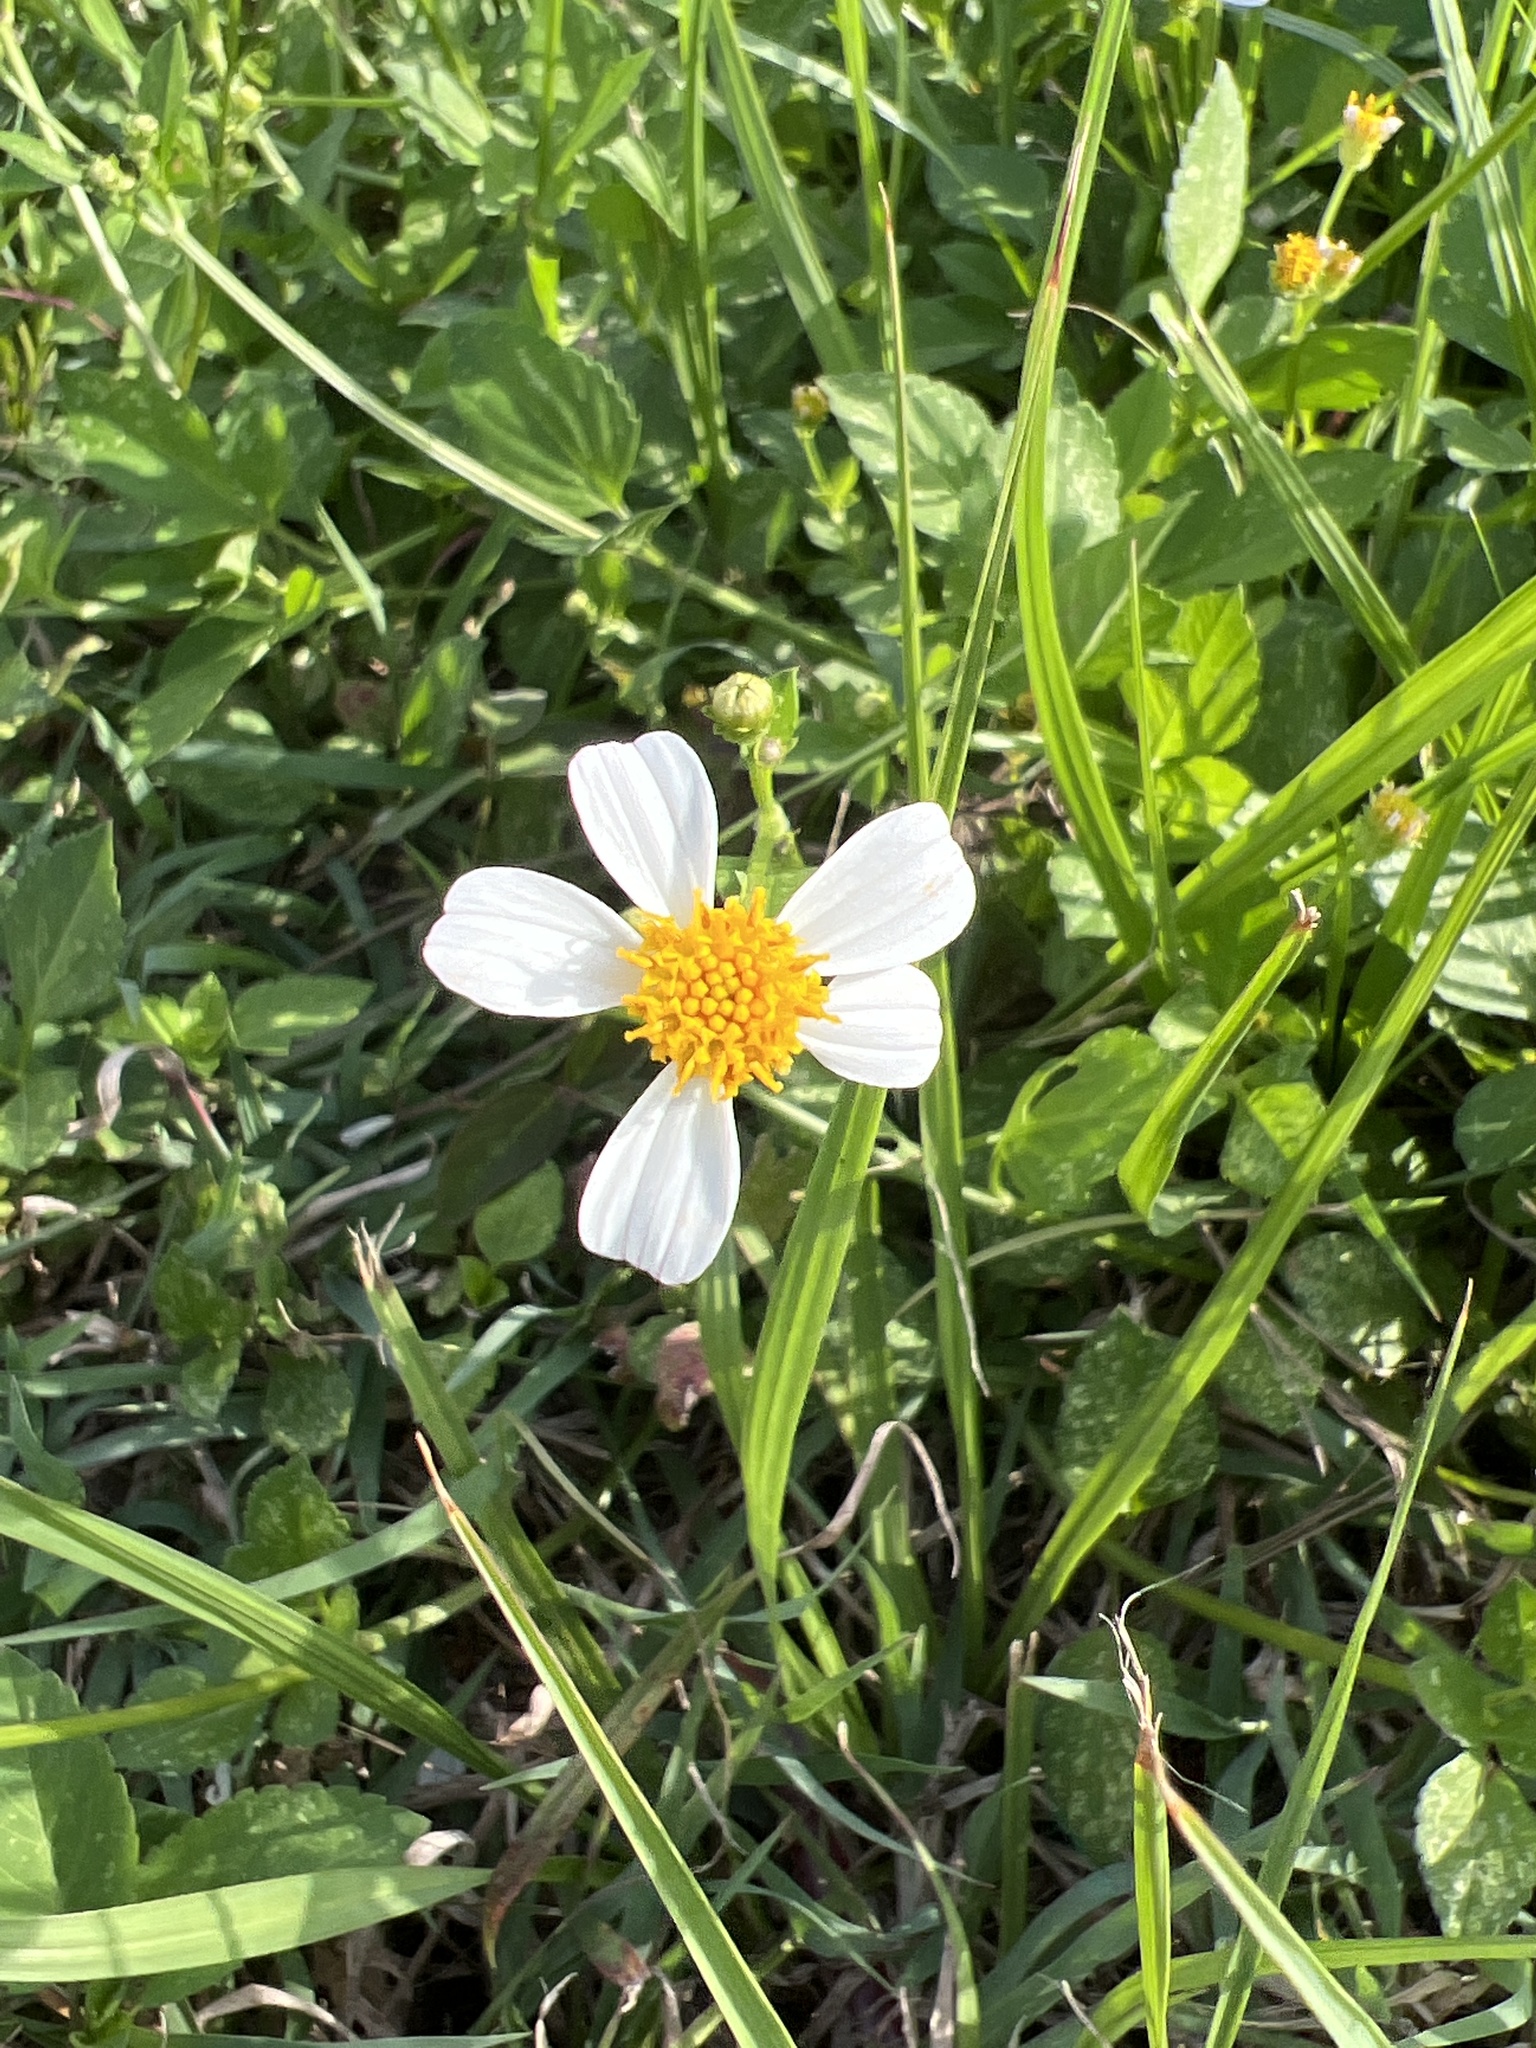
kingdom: Plantae
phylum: Tracheophyta
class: Magnoliopsida
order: Asterales
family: Asteraceae
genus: Bidens
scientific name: Bidens alba
